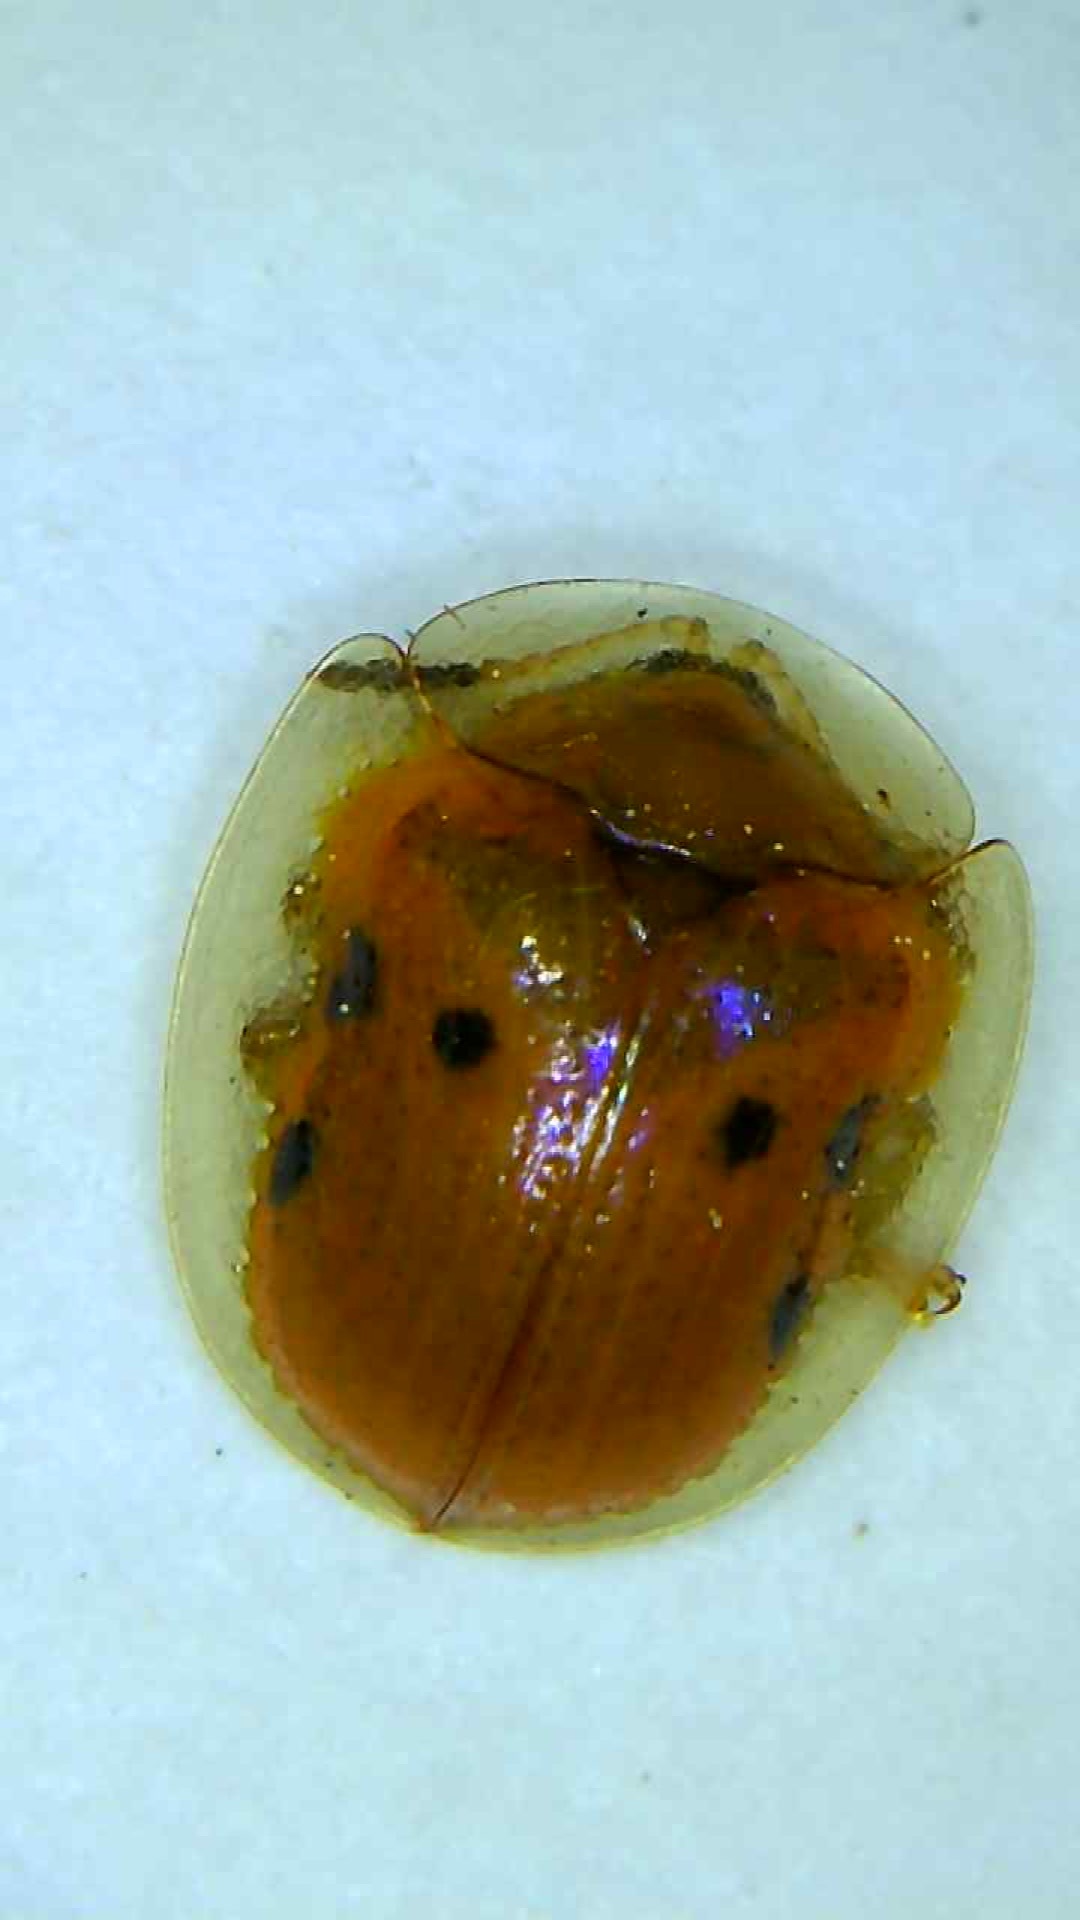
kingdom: Animalia
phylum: Arthropoda
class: Insecta
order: Coleoptera
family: Chrysomelidae
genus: Charidotella
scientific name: Charidotella sexpunctata
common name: Golden tortoise beetle
